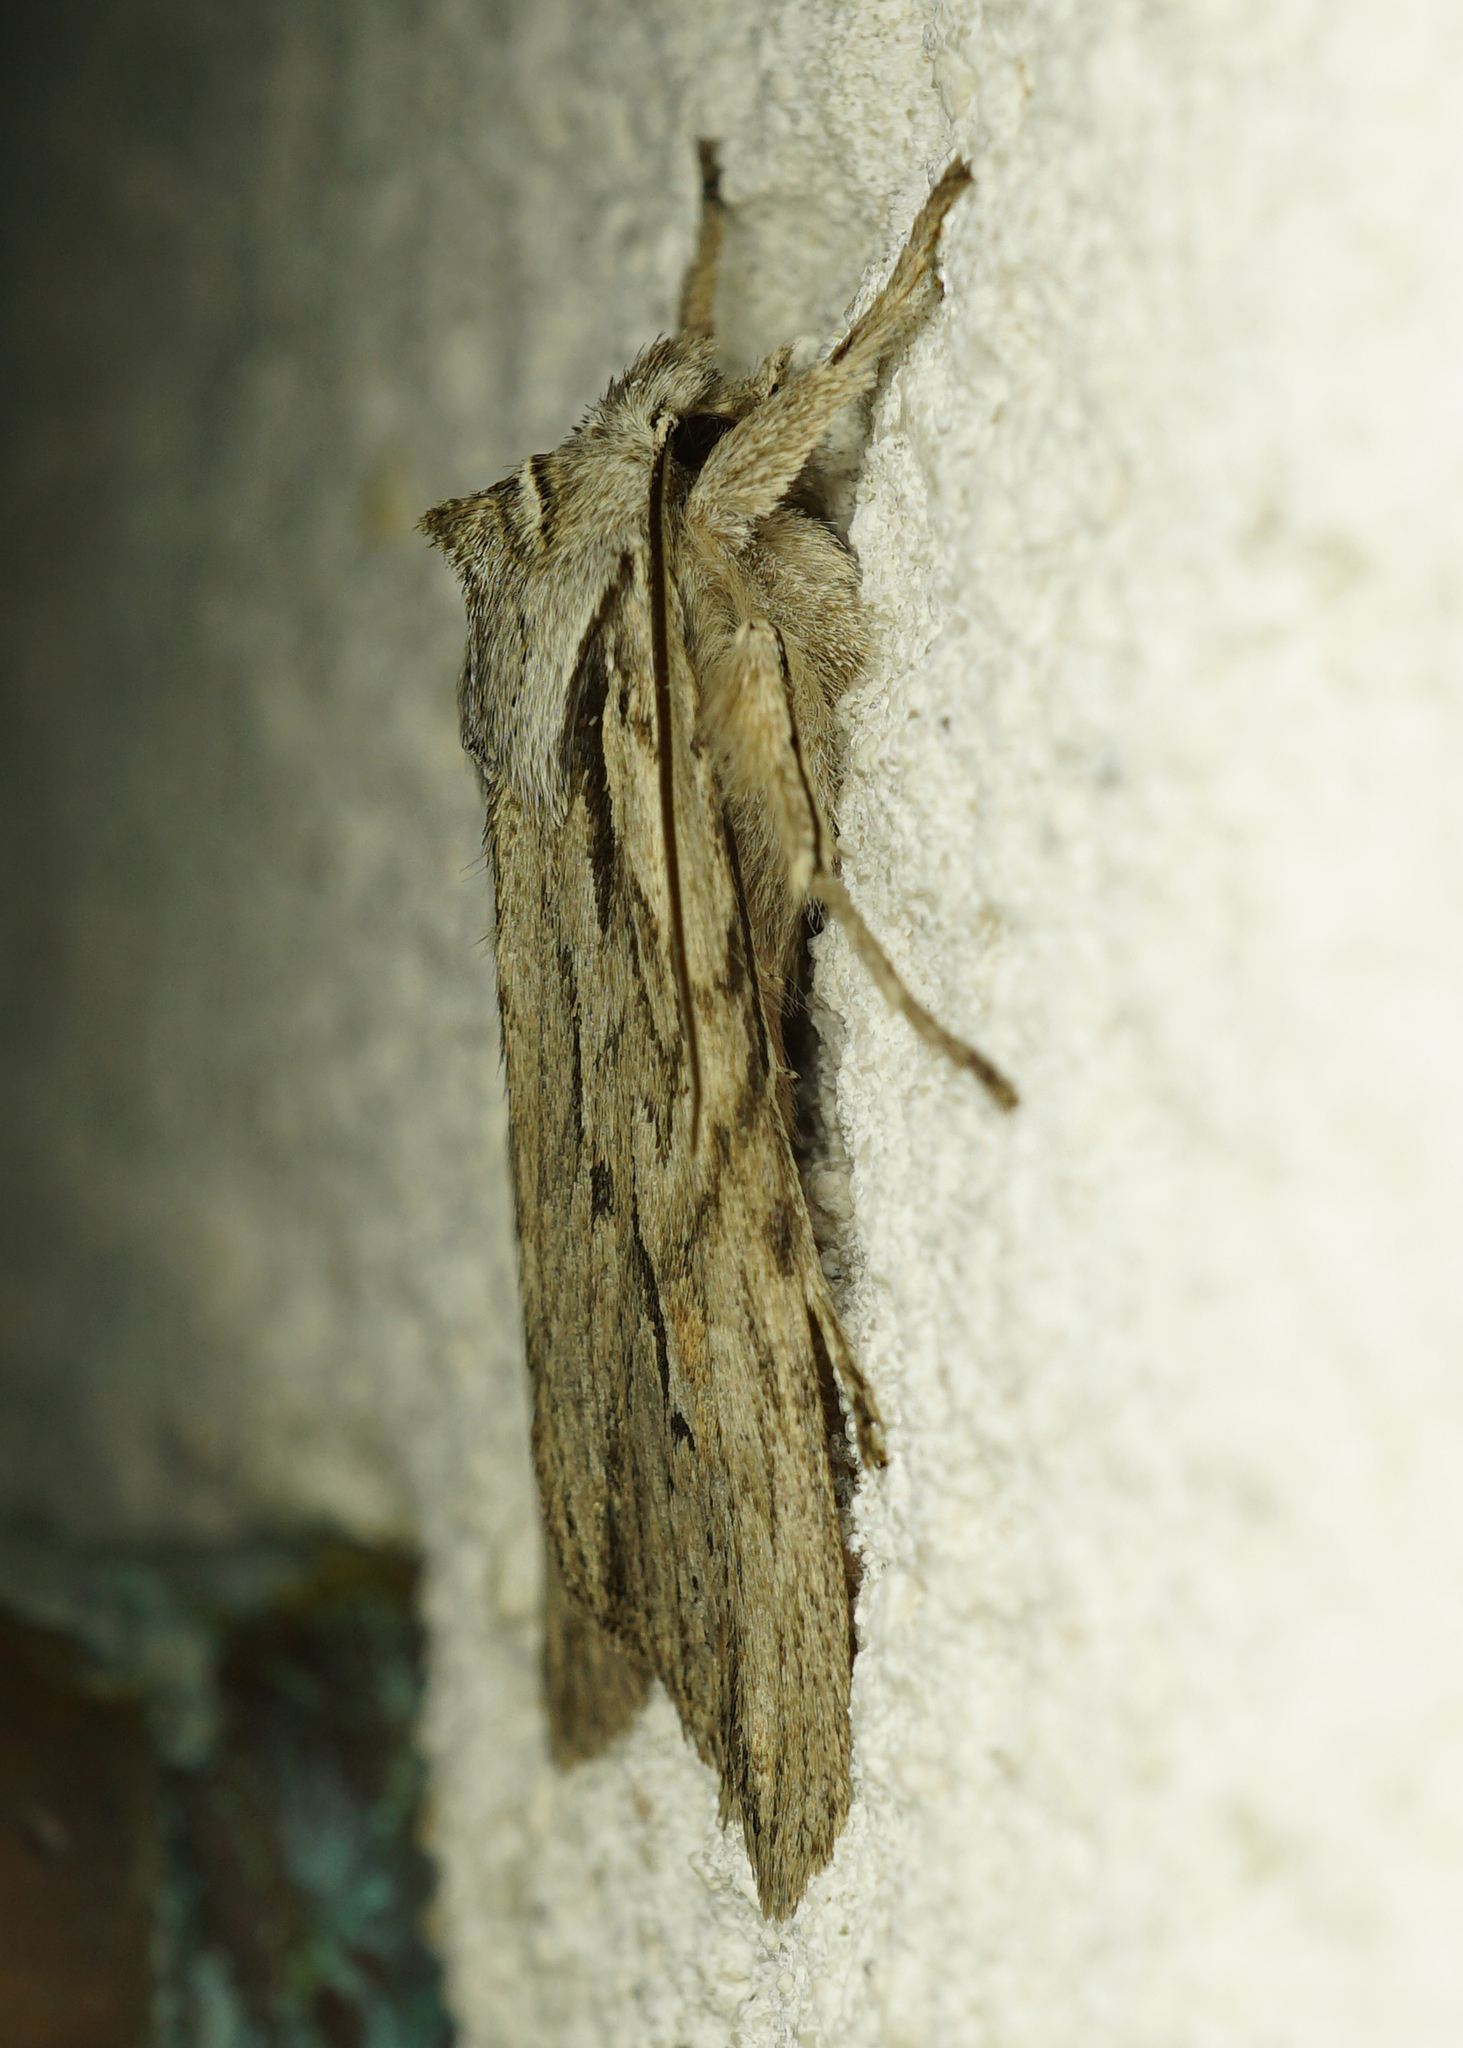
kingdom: Animalia
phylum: Arthropoda
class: Insecta
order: Lepidoptera
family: Noctuidae
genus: Lithophane
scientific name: Lithophane leautieri
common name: Blair's shoulder-knot
